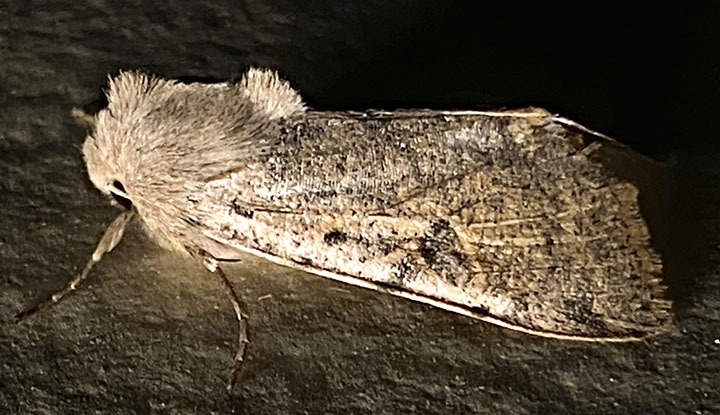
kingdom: Animalia
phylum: Arthropoda
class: Insecta
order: Lepidoptera
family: Noctuidae
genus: Orthosia
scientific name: Orthosia behrensiana
